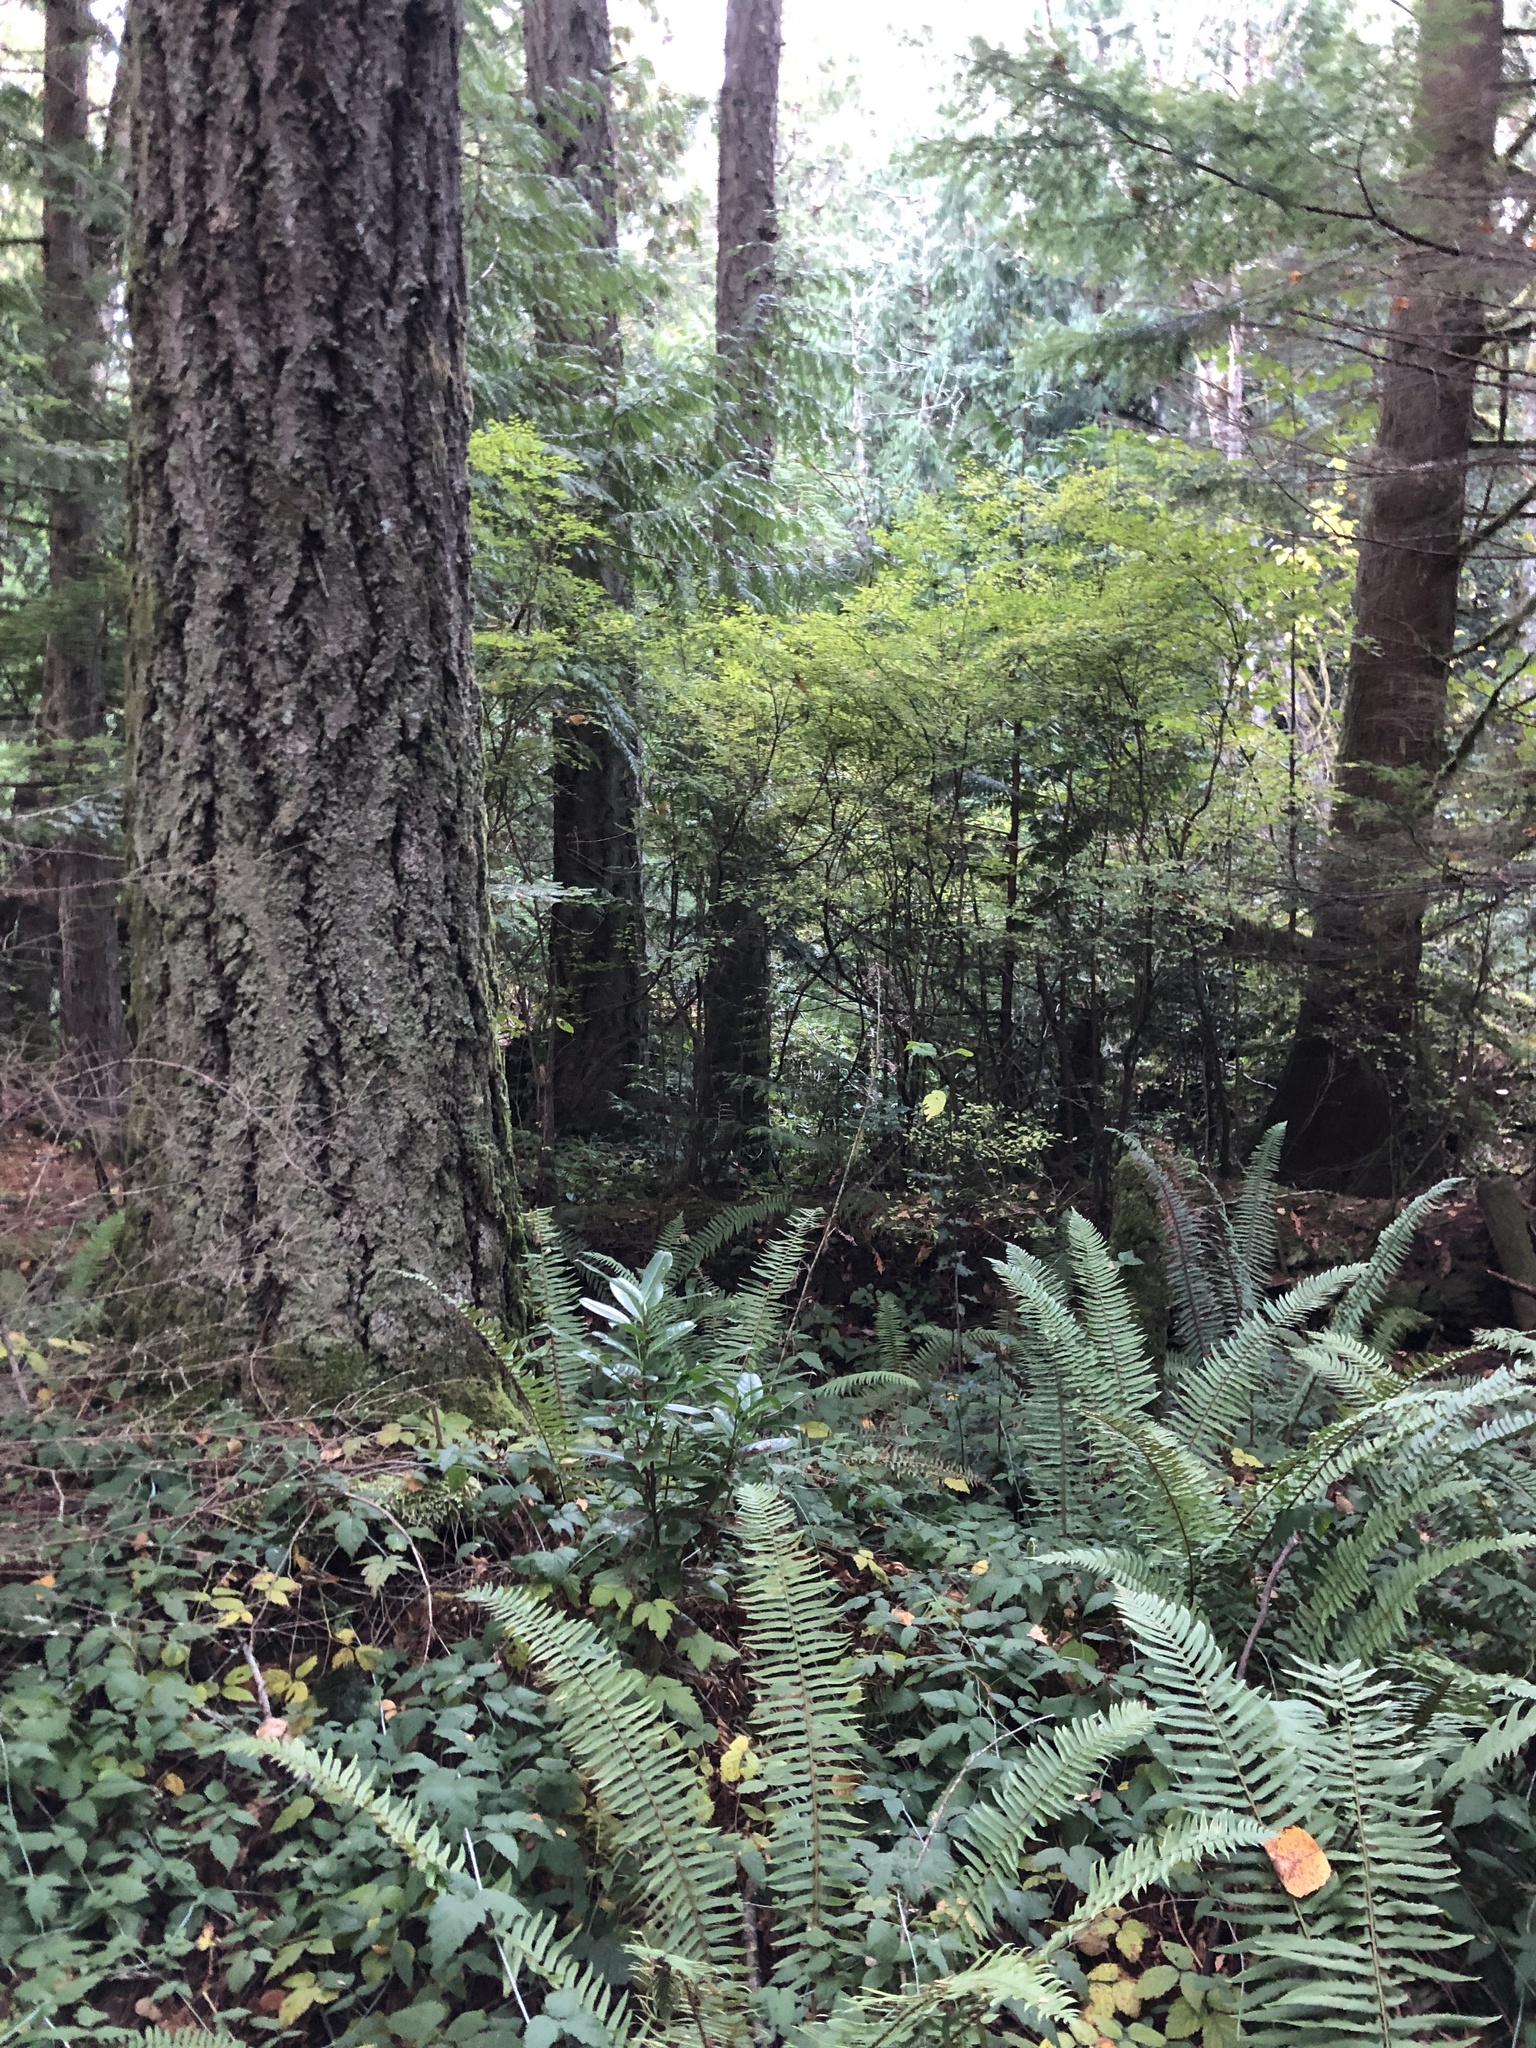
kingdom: Plantae
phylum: Tracheophyta
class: Magnoliopsida
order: Rosales
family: Rosaceae
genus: Prunus
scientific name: Prunus laurocerasus
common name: Cherry laurel
